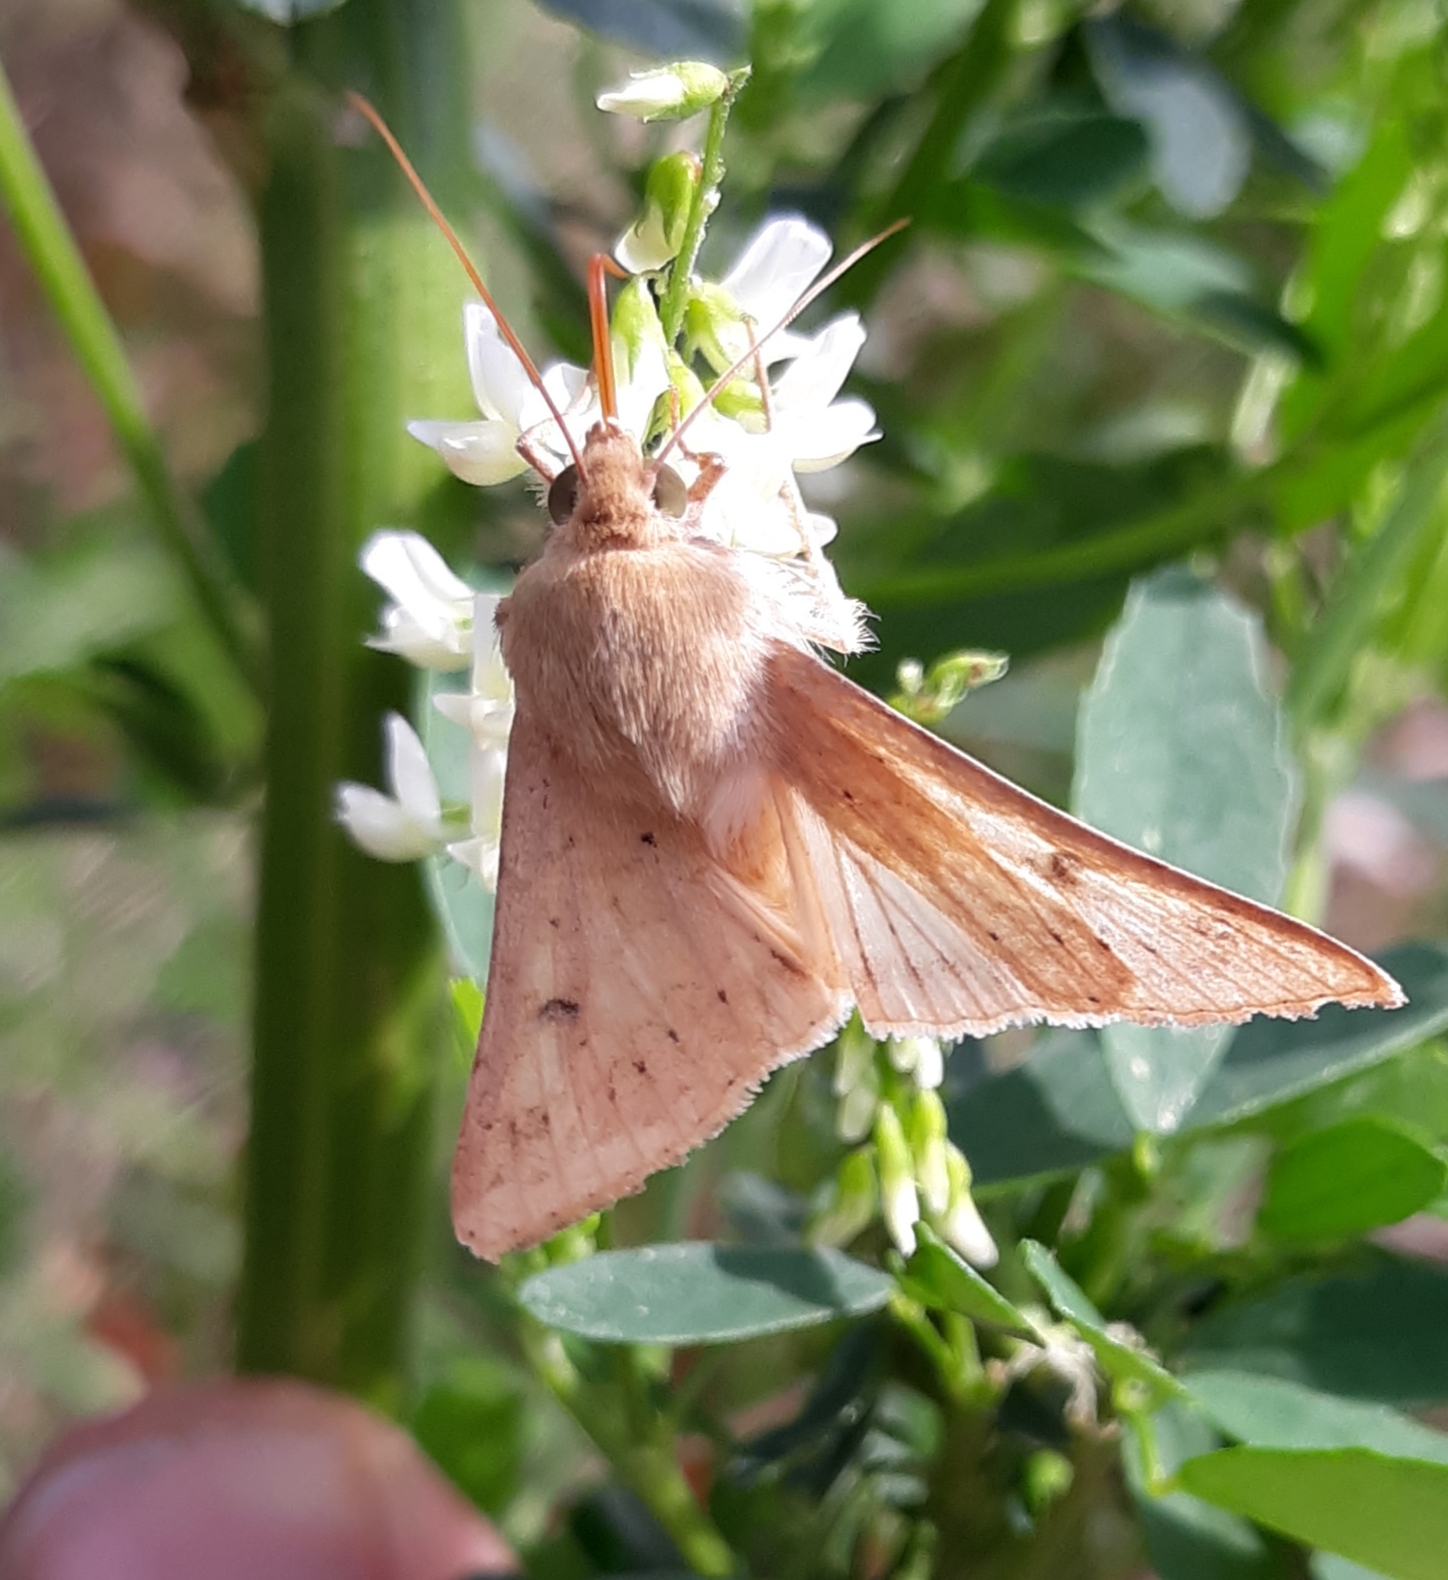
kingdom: Animalia
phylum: Arthropoda
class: Insecta
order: Lepidoptera
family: Noctuidae
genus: Helicoverpa
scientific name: Helicoverpa zea
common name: Bollworm
